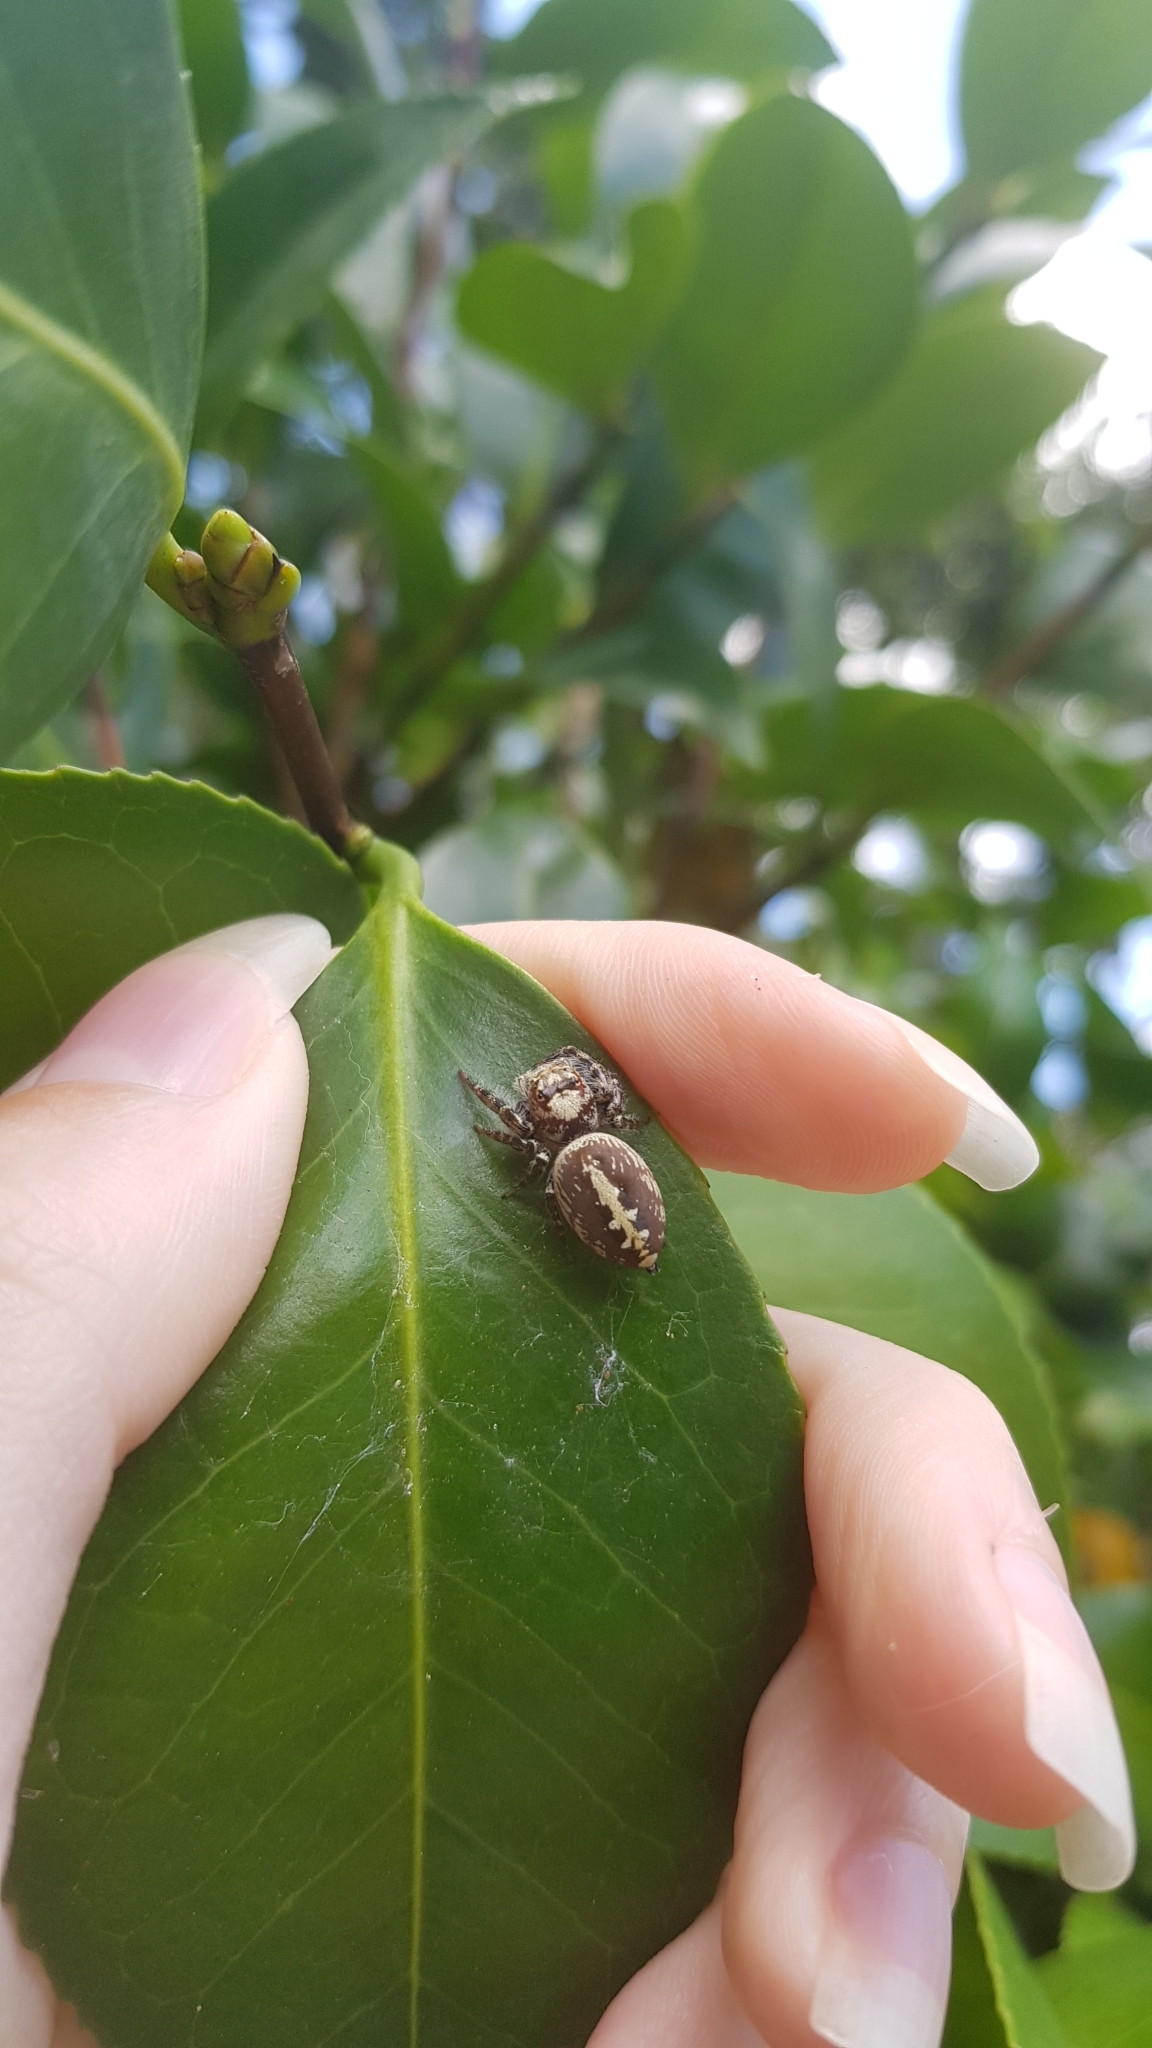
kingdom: Animalia
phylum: Arthropoda
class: Arachnida
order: Araneae
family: Salticidae
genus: Opisthoncus
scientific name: Opisthoncus quadratarius
